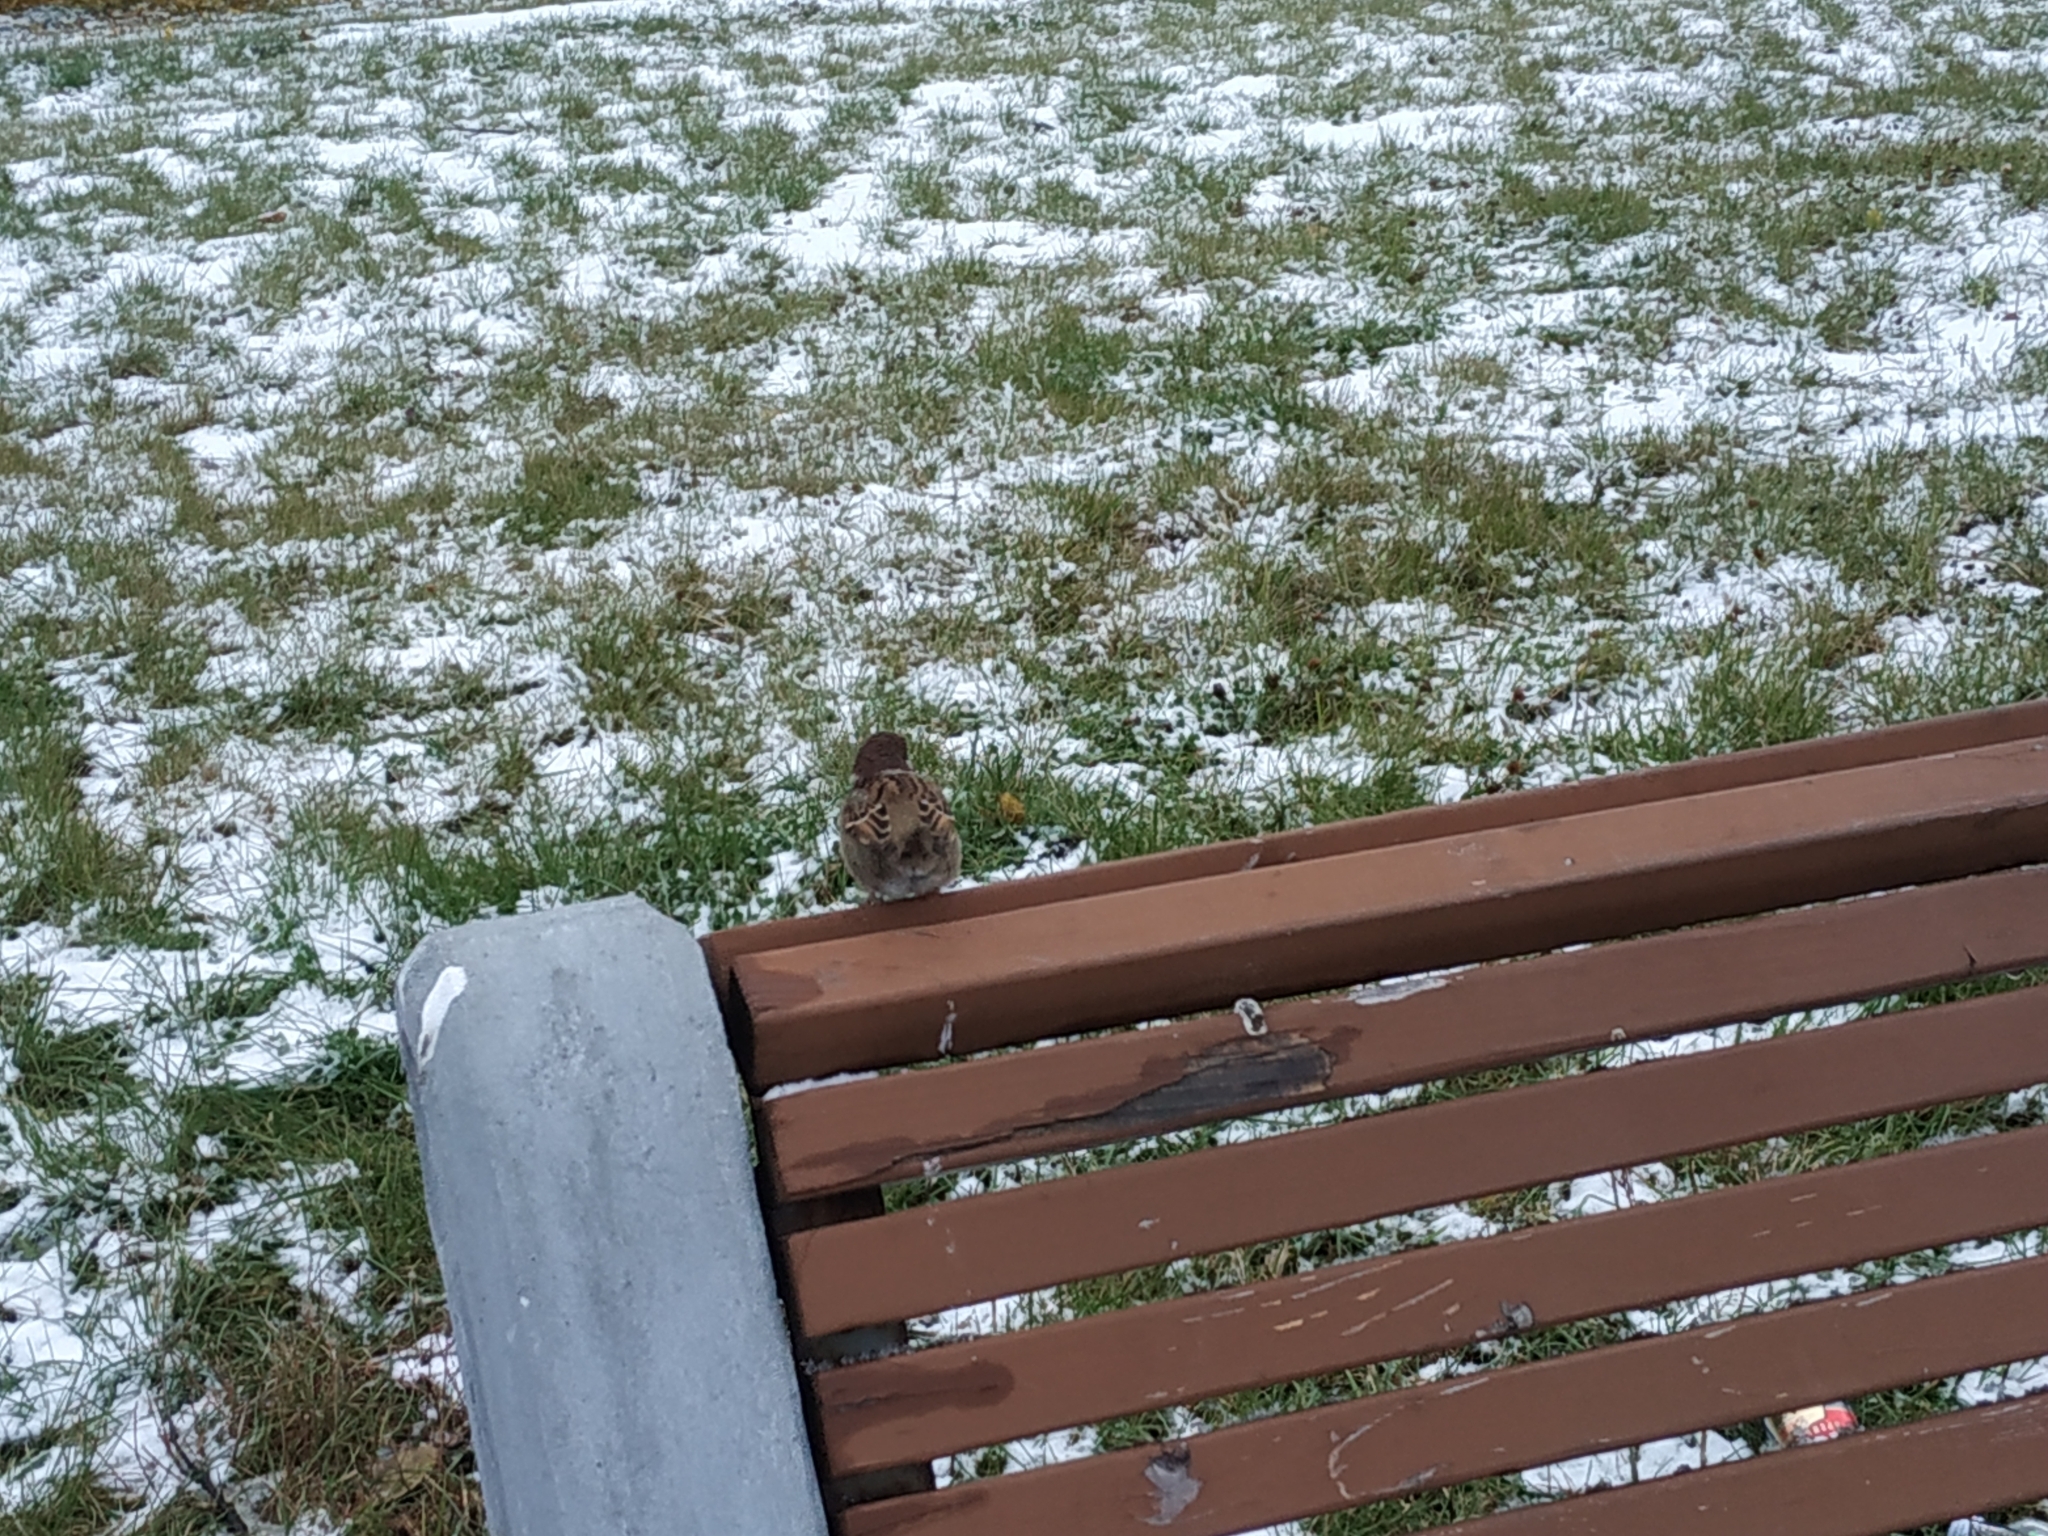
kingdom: Animalia
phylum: Chordata
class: Aves
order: Passeriformes
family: Passeridae
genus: Passer
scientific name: Passer montanus
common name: Eurasian tree sparrow
